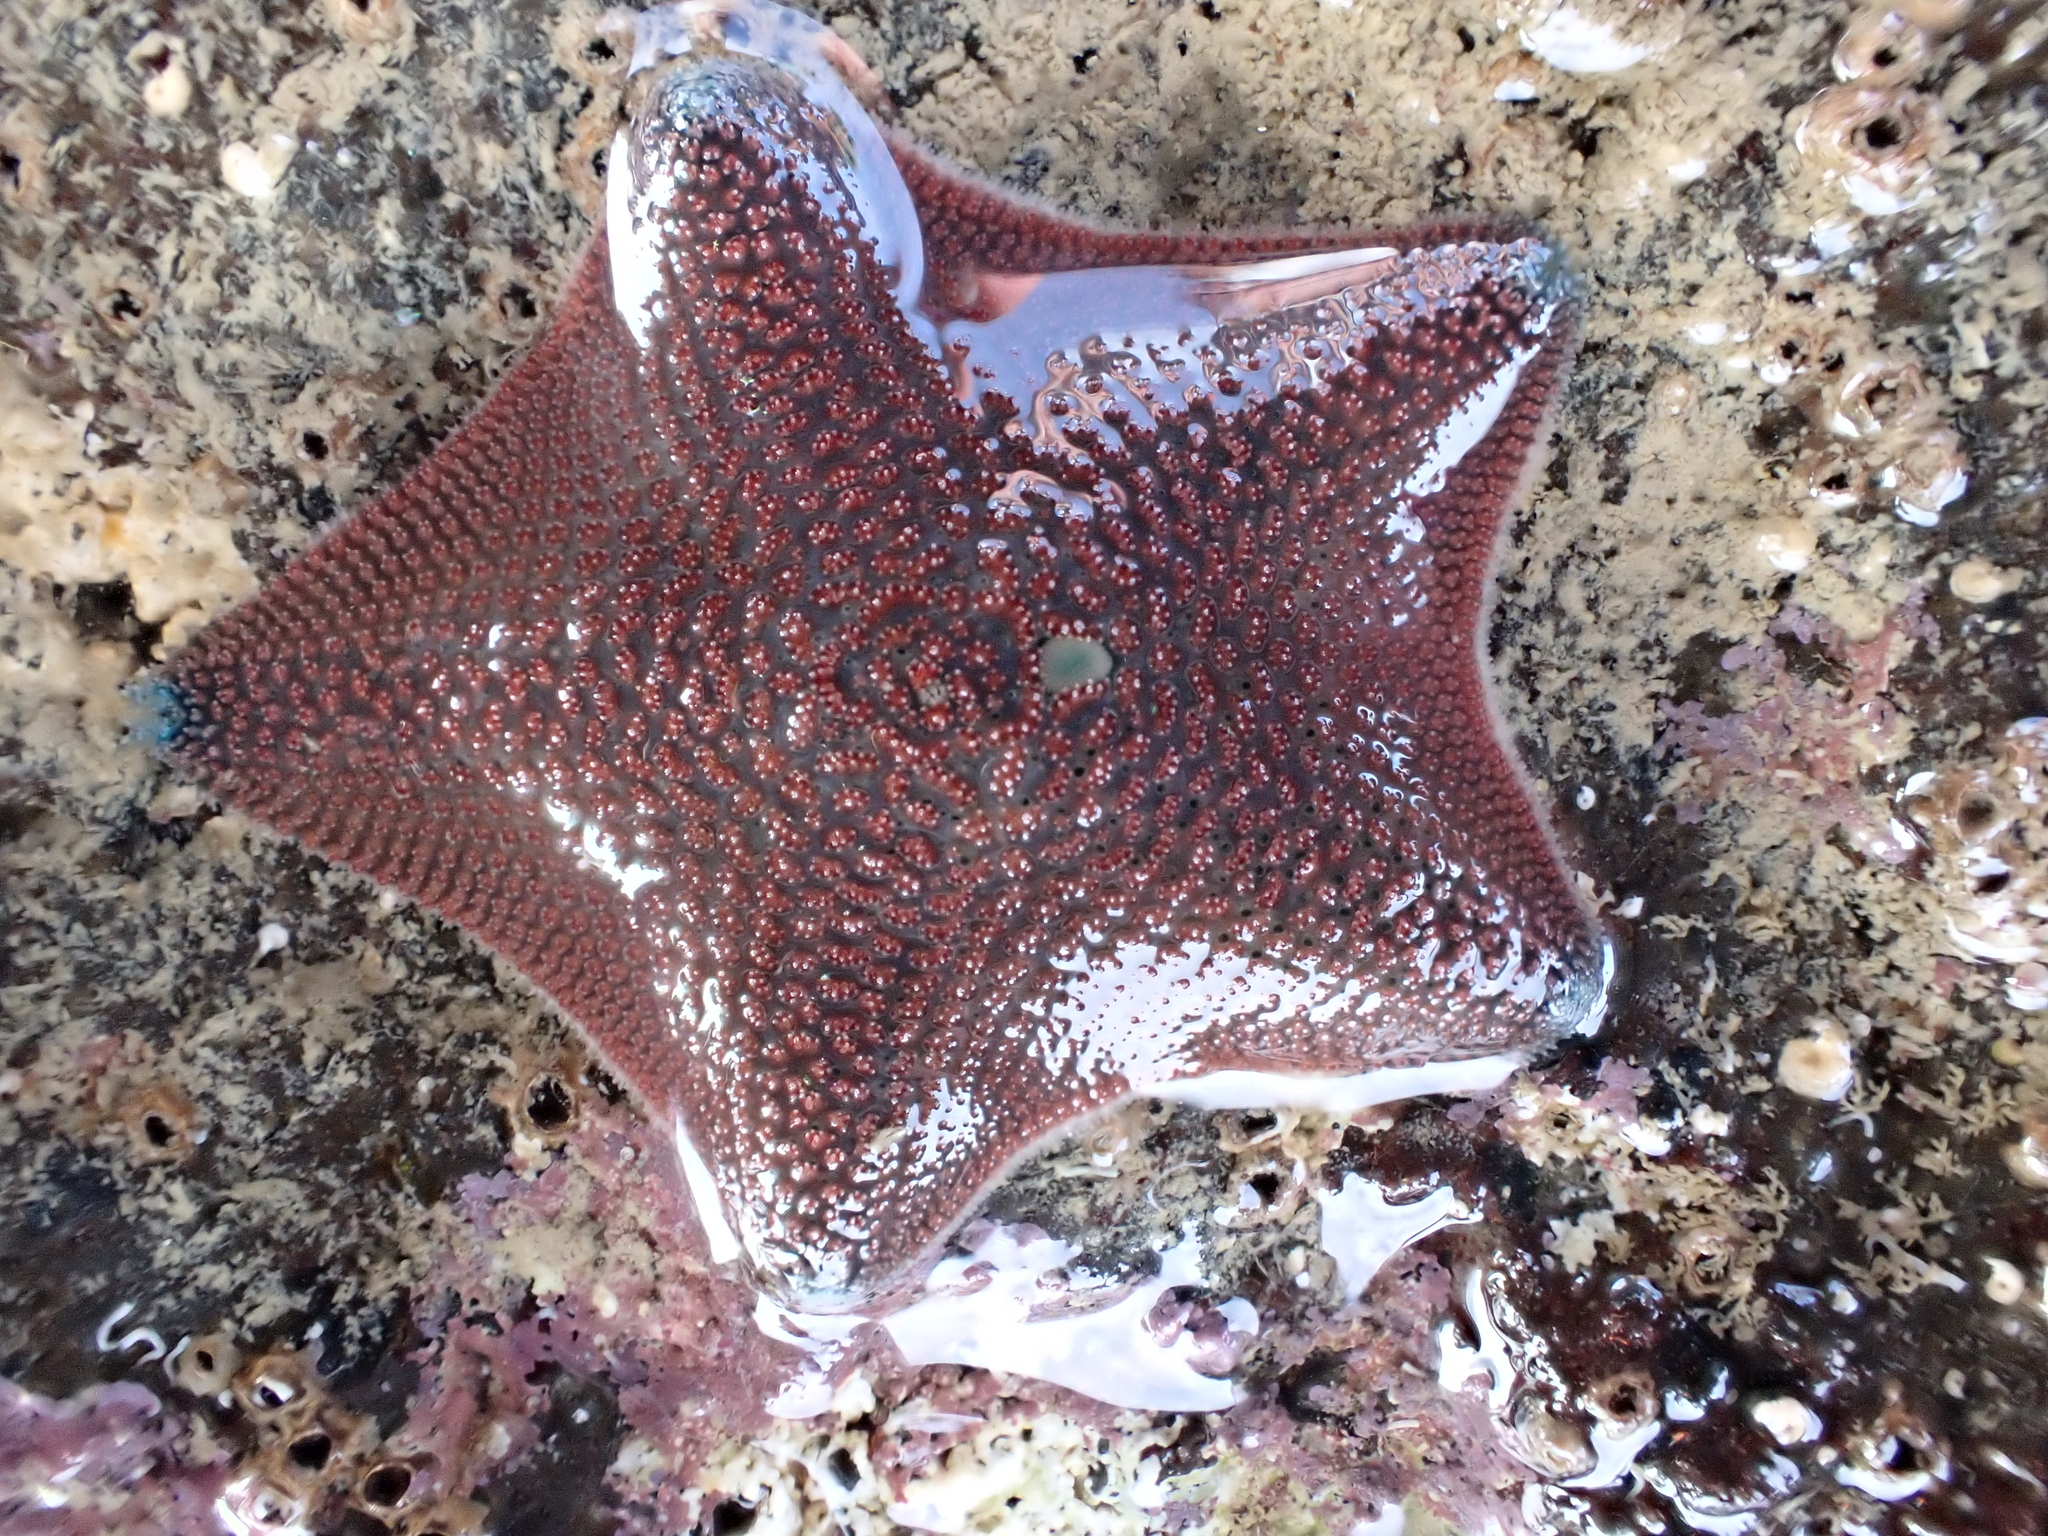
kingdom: Animalia
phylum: Echinodermata
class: Asteroidea
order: Valvatida
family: Asterinidae
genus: Patiriella
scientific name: Patiriella regularis
